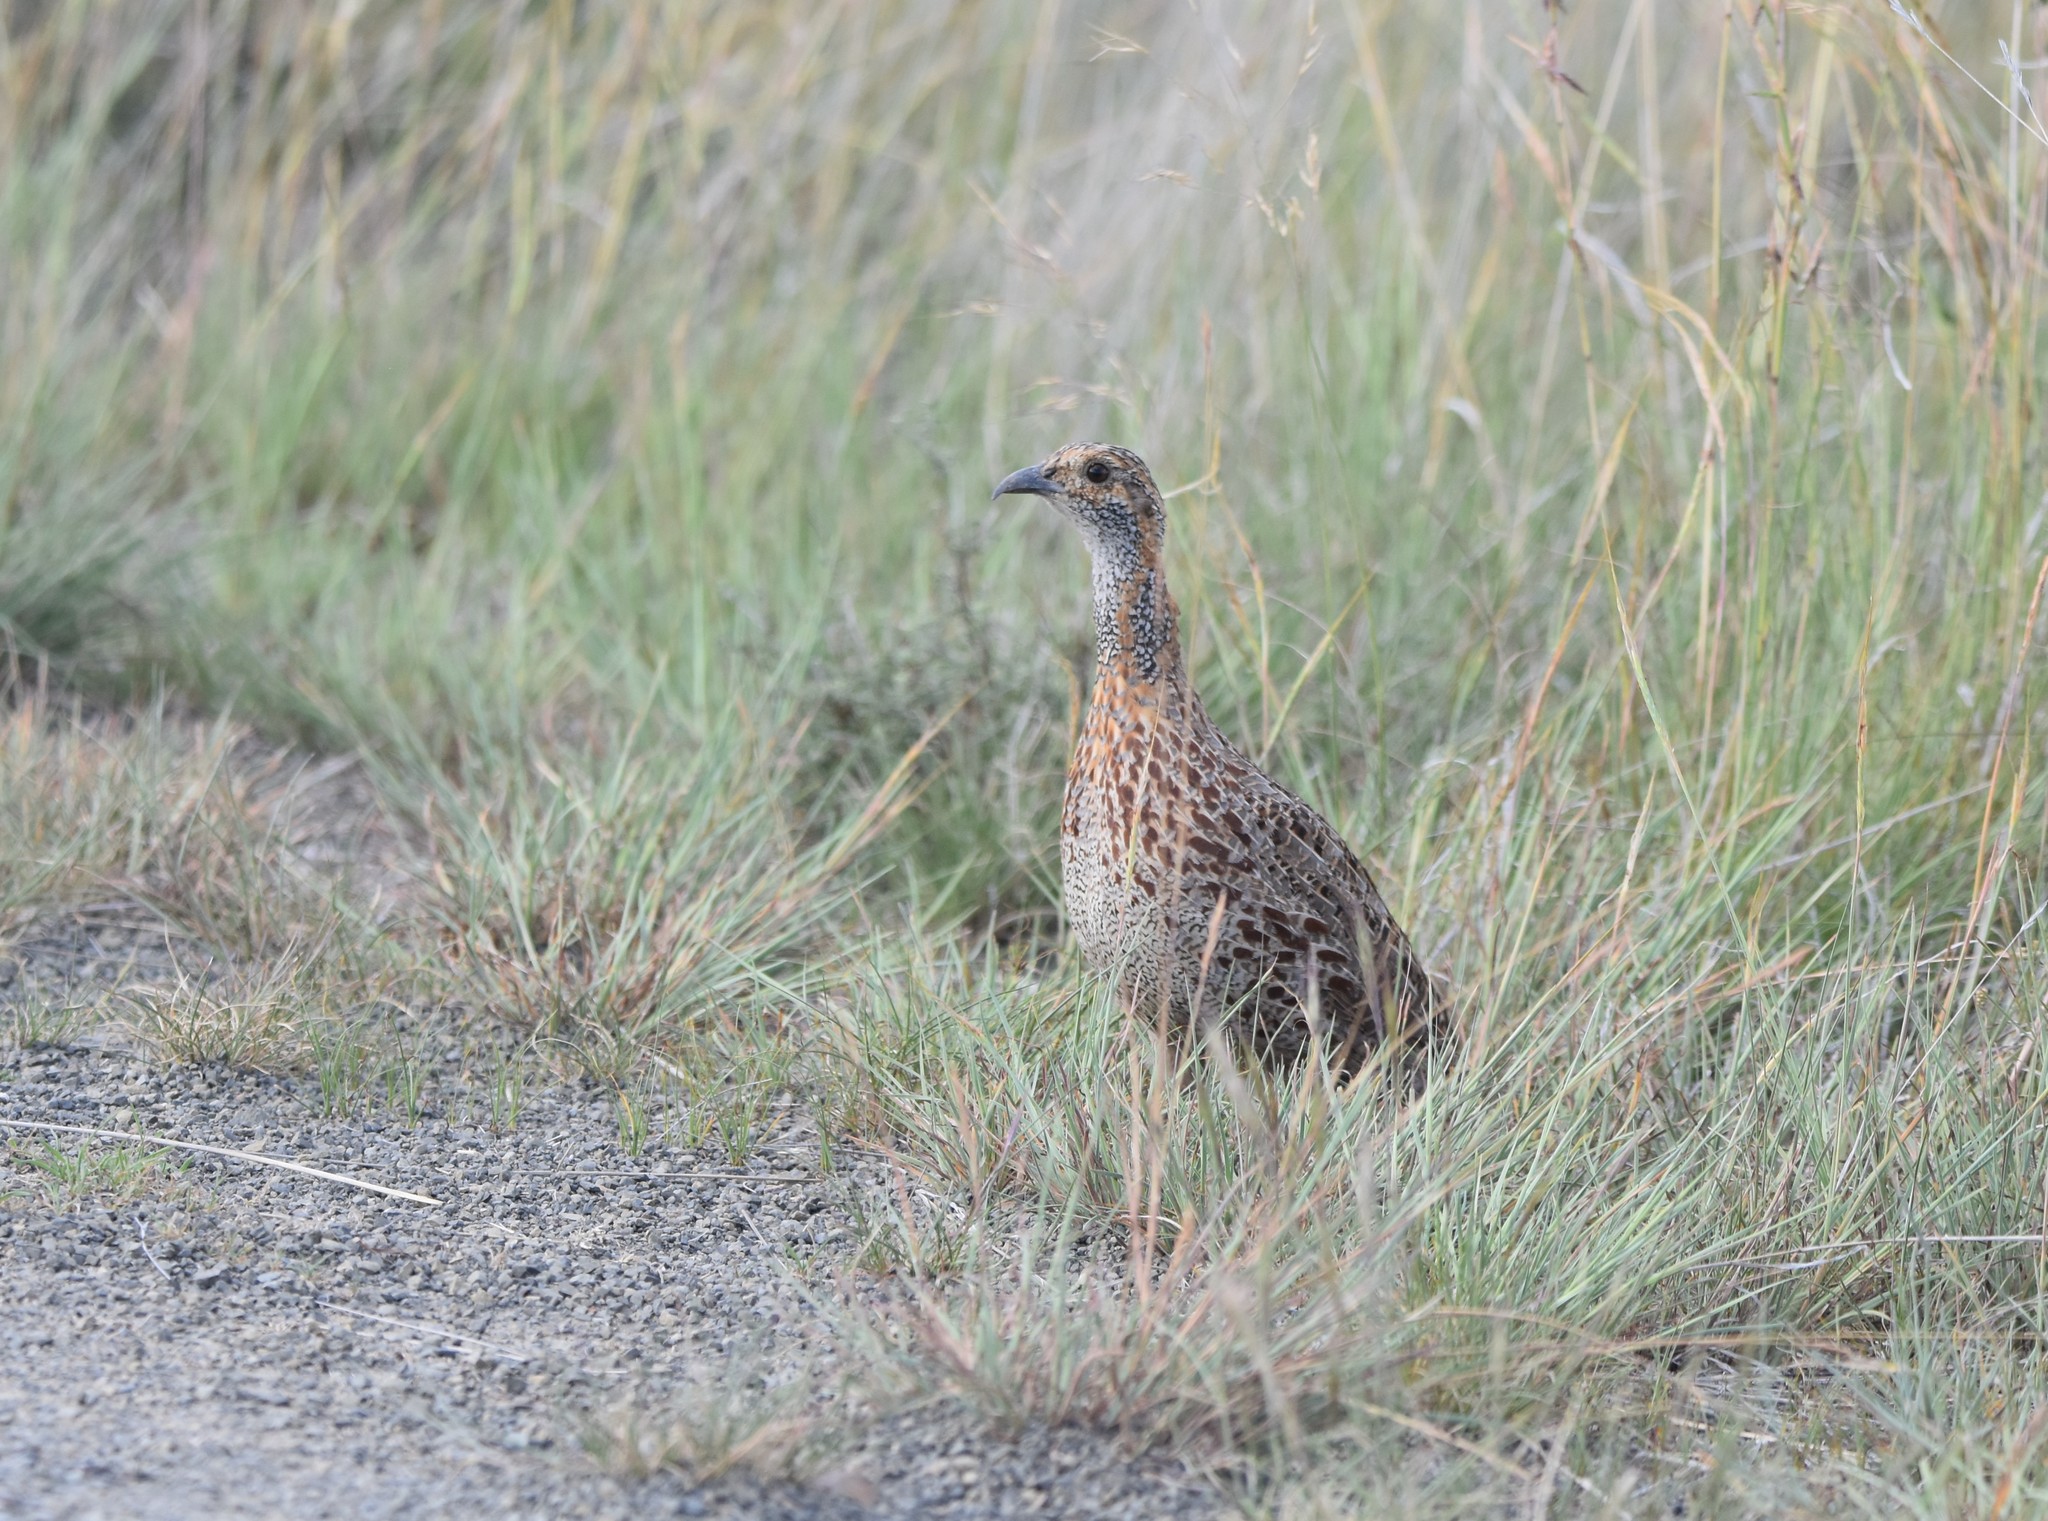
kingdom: Animalia
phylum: Chordata
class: Aves
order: Galliformes
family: Phasianidae
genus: Scleroptila
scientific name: Scleroptila afra
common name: Grey-winged francolin
